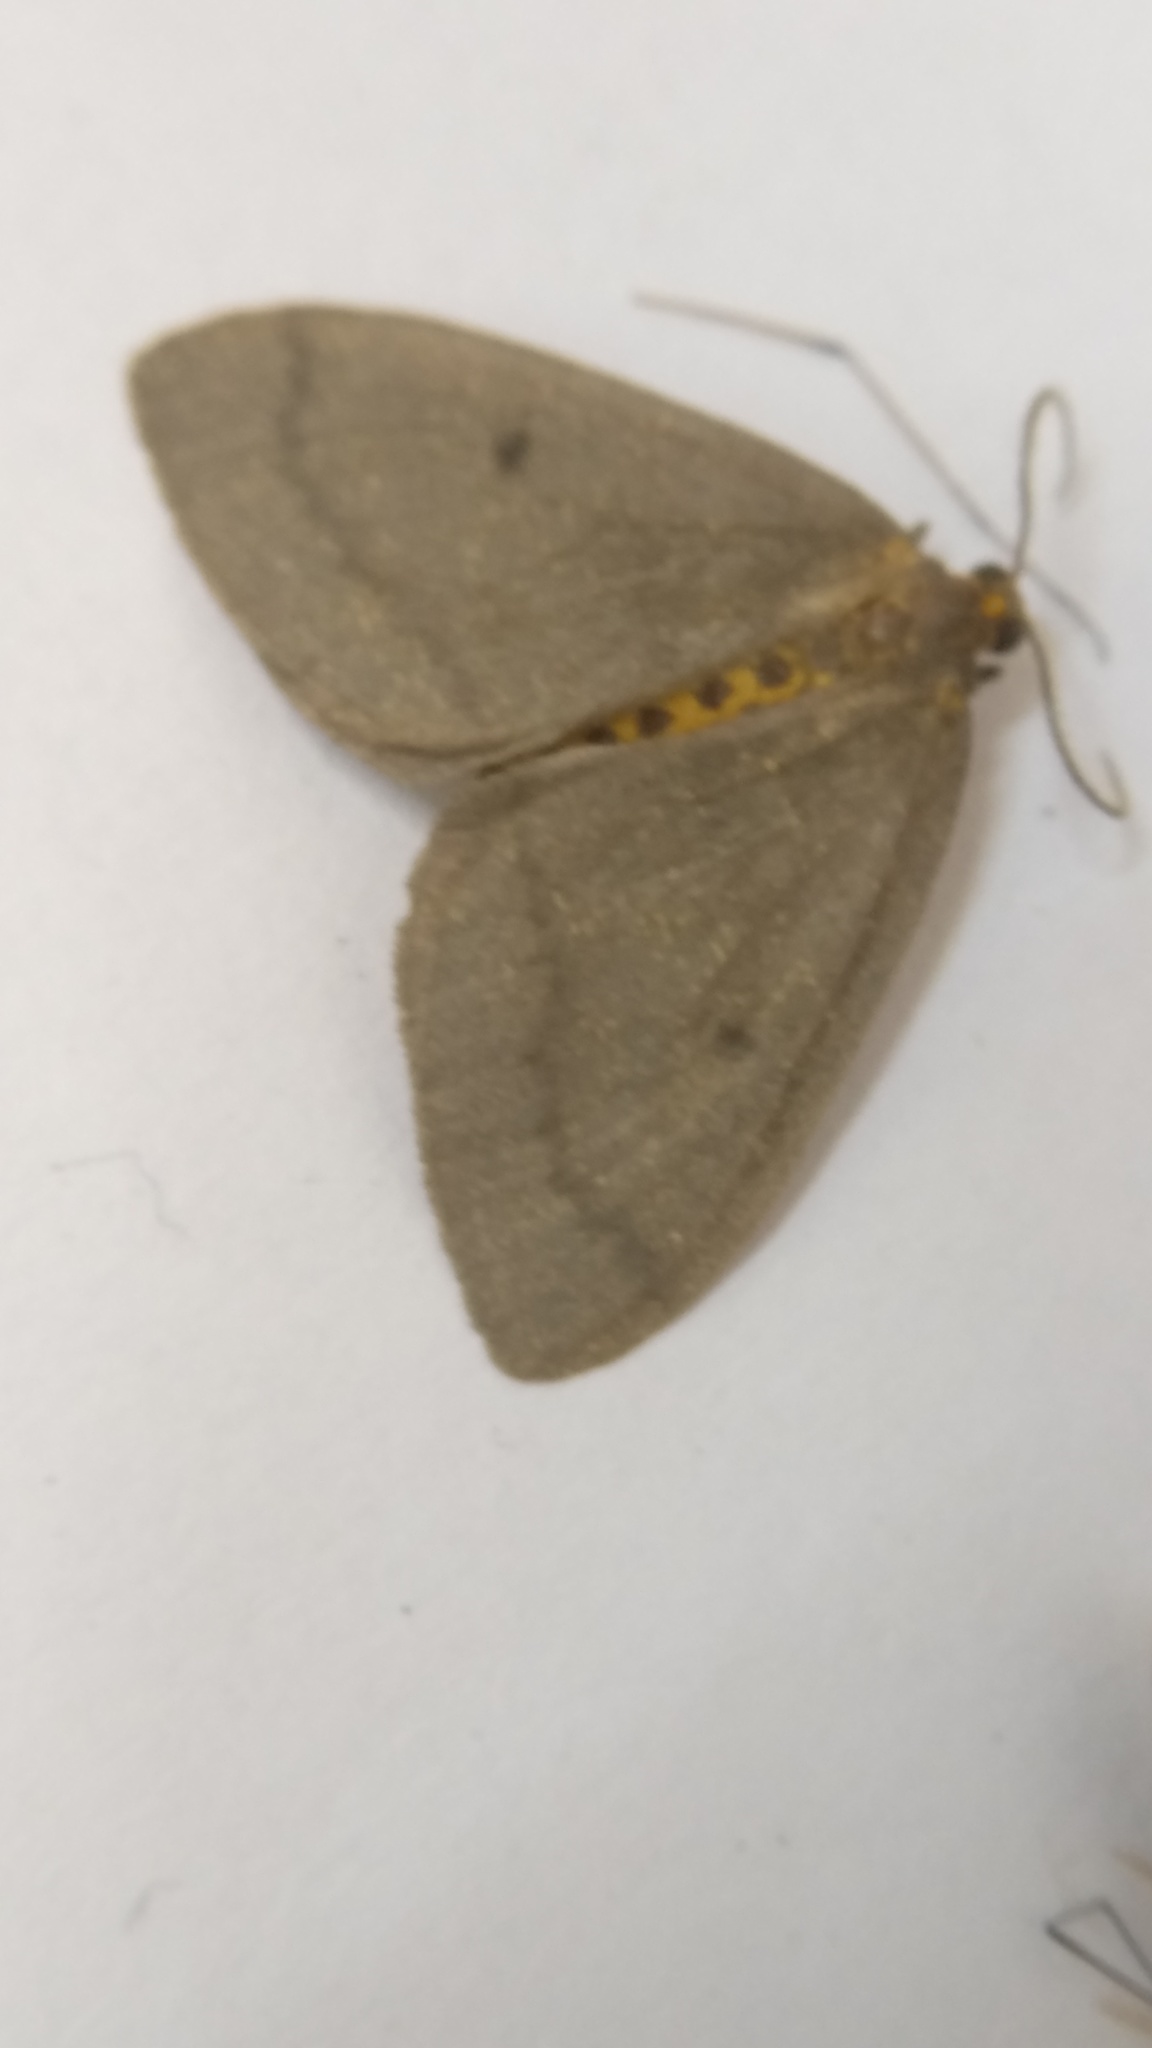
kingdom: Animalia
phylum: Arthropoda
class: Insecta
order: Lepidoptera
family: Geometridae
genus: Abraxas
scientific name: Abraxas poliaria
